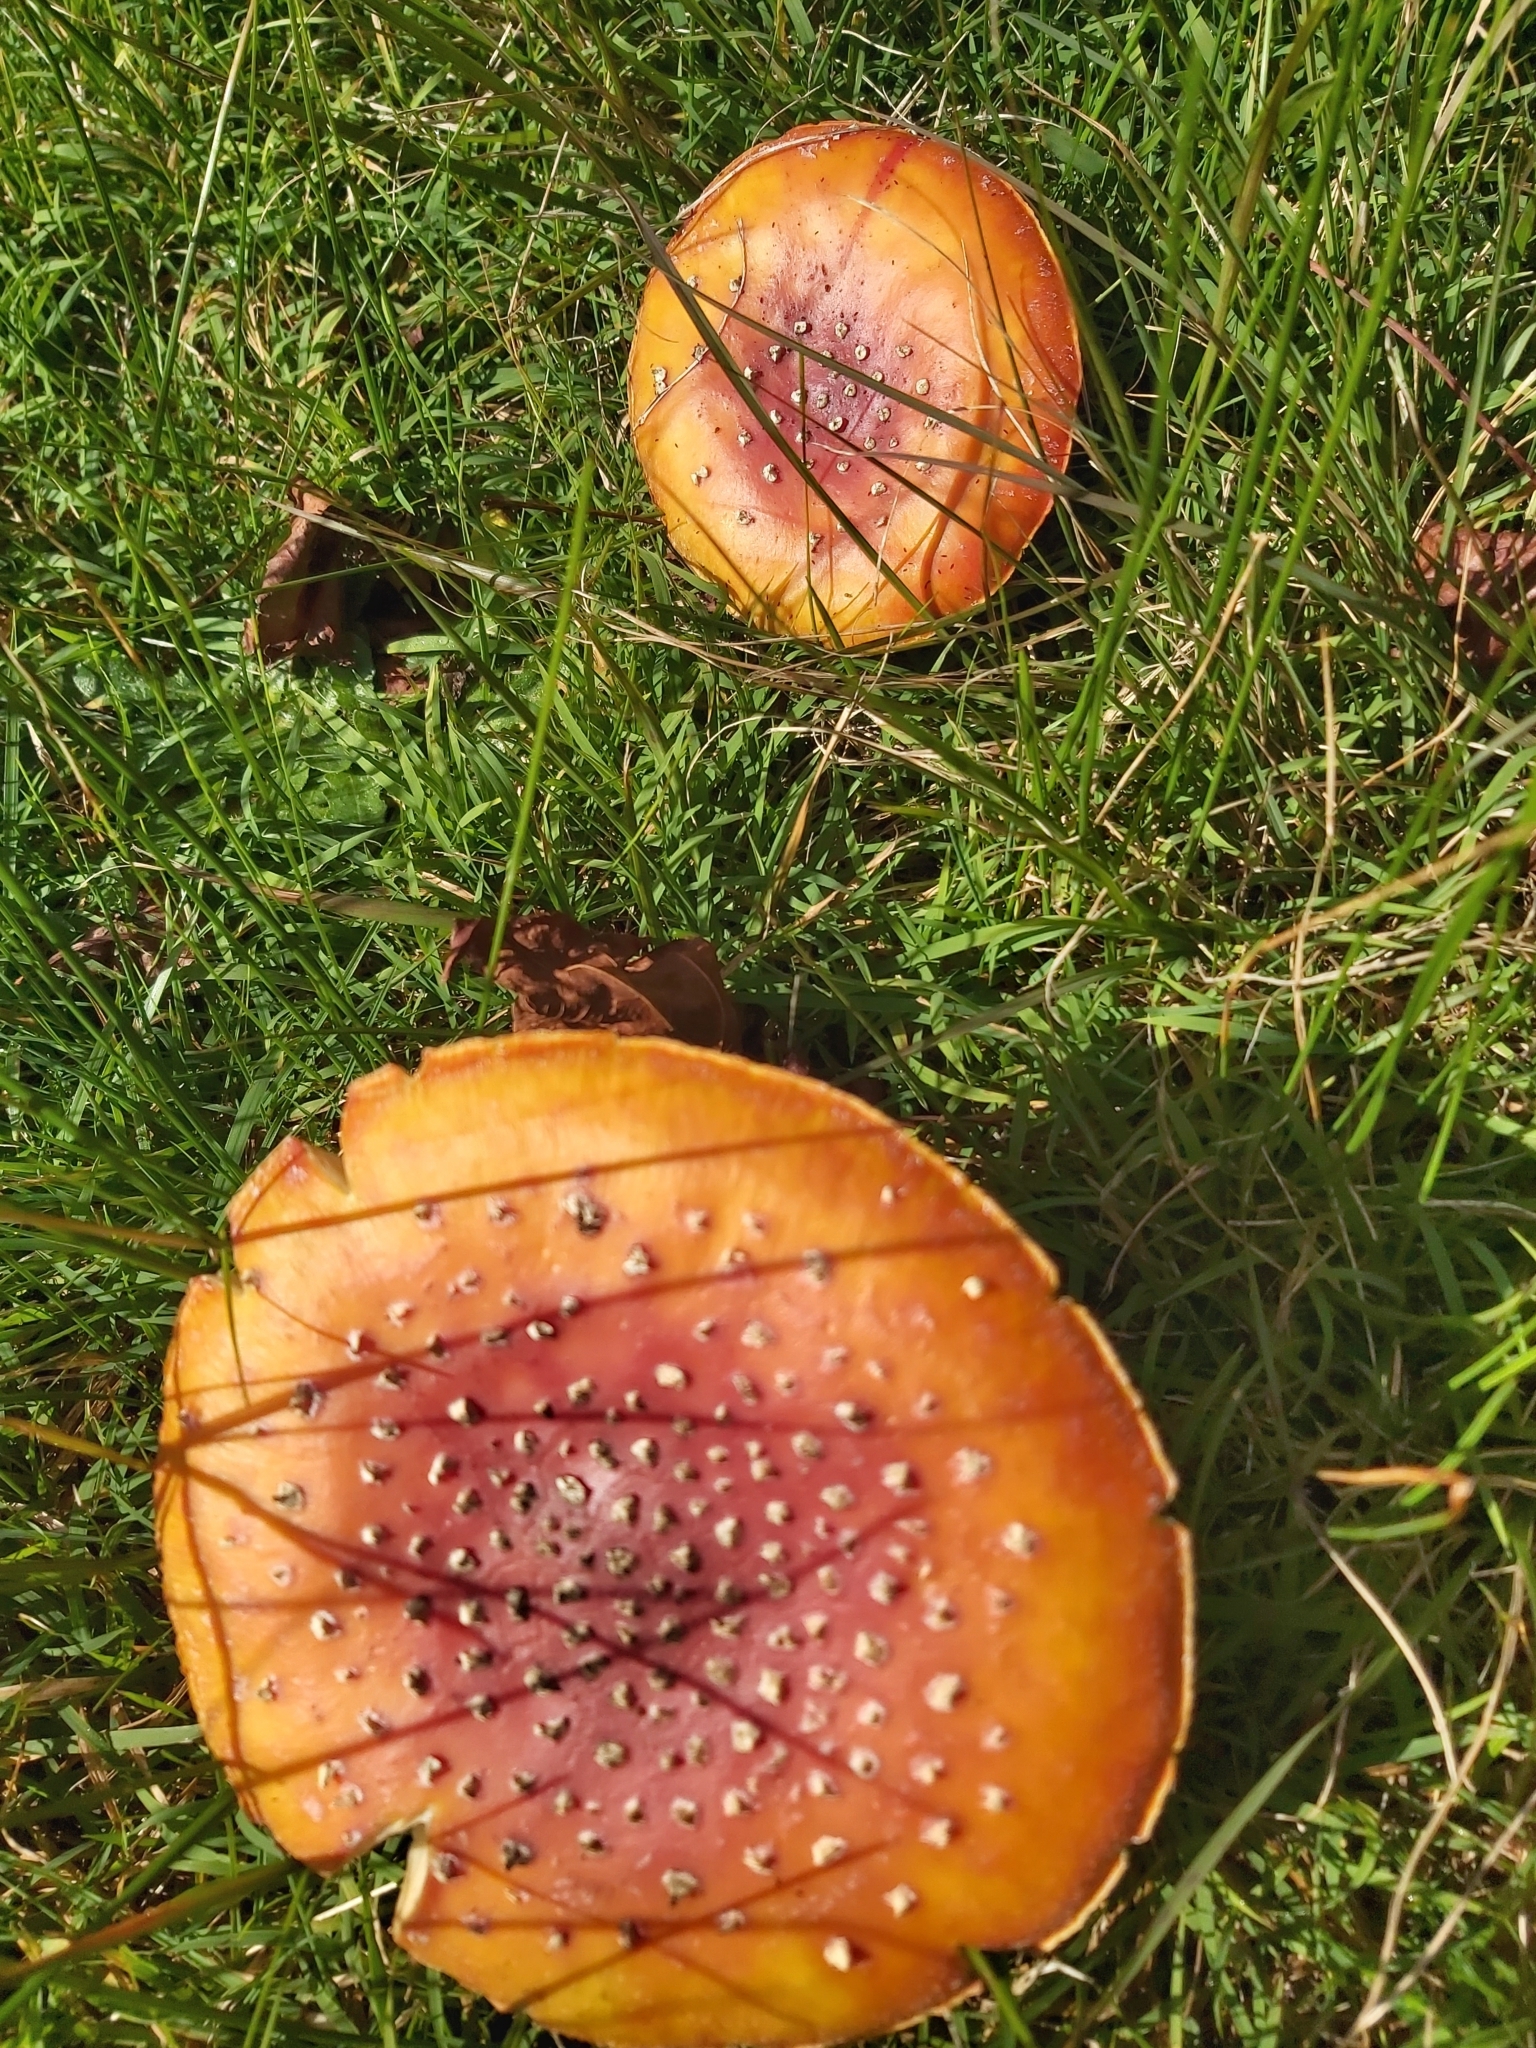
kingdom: Fungi
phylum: Basidiomycota
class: Agaricomycetes
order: Agaricales
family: Amanitaceae
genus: Amanita
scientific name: Amanita muscaria
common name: Fly agaric
